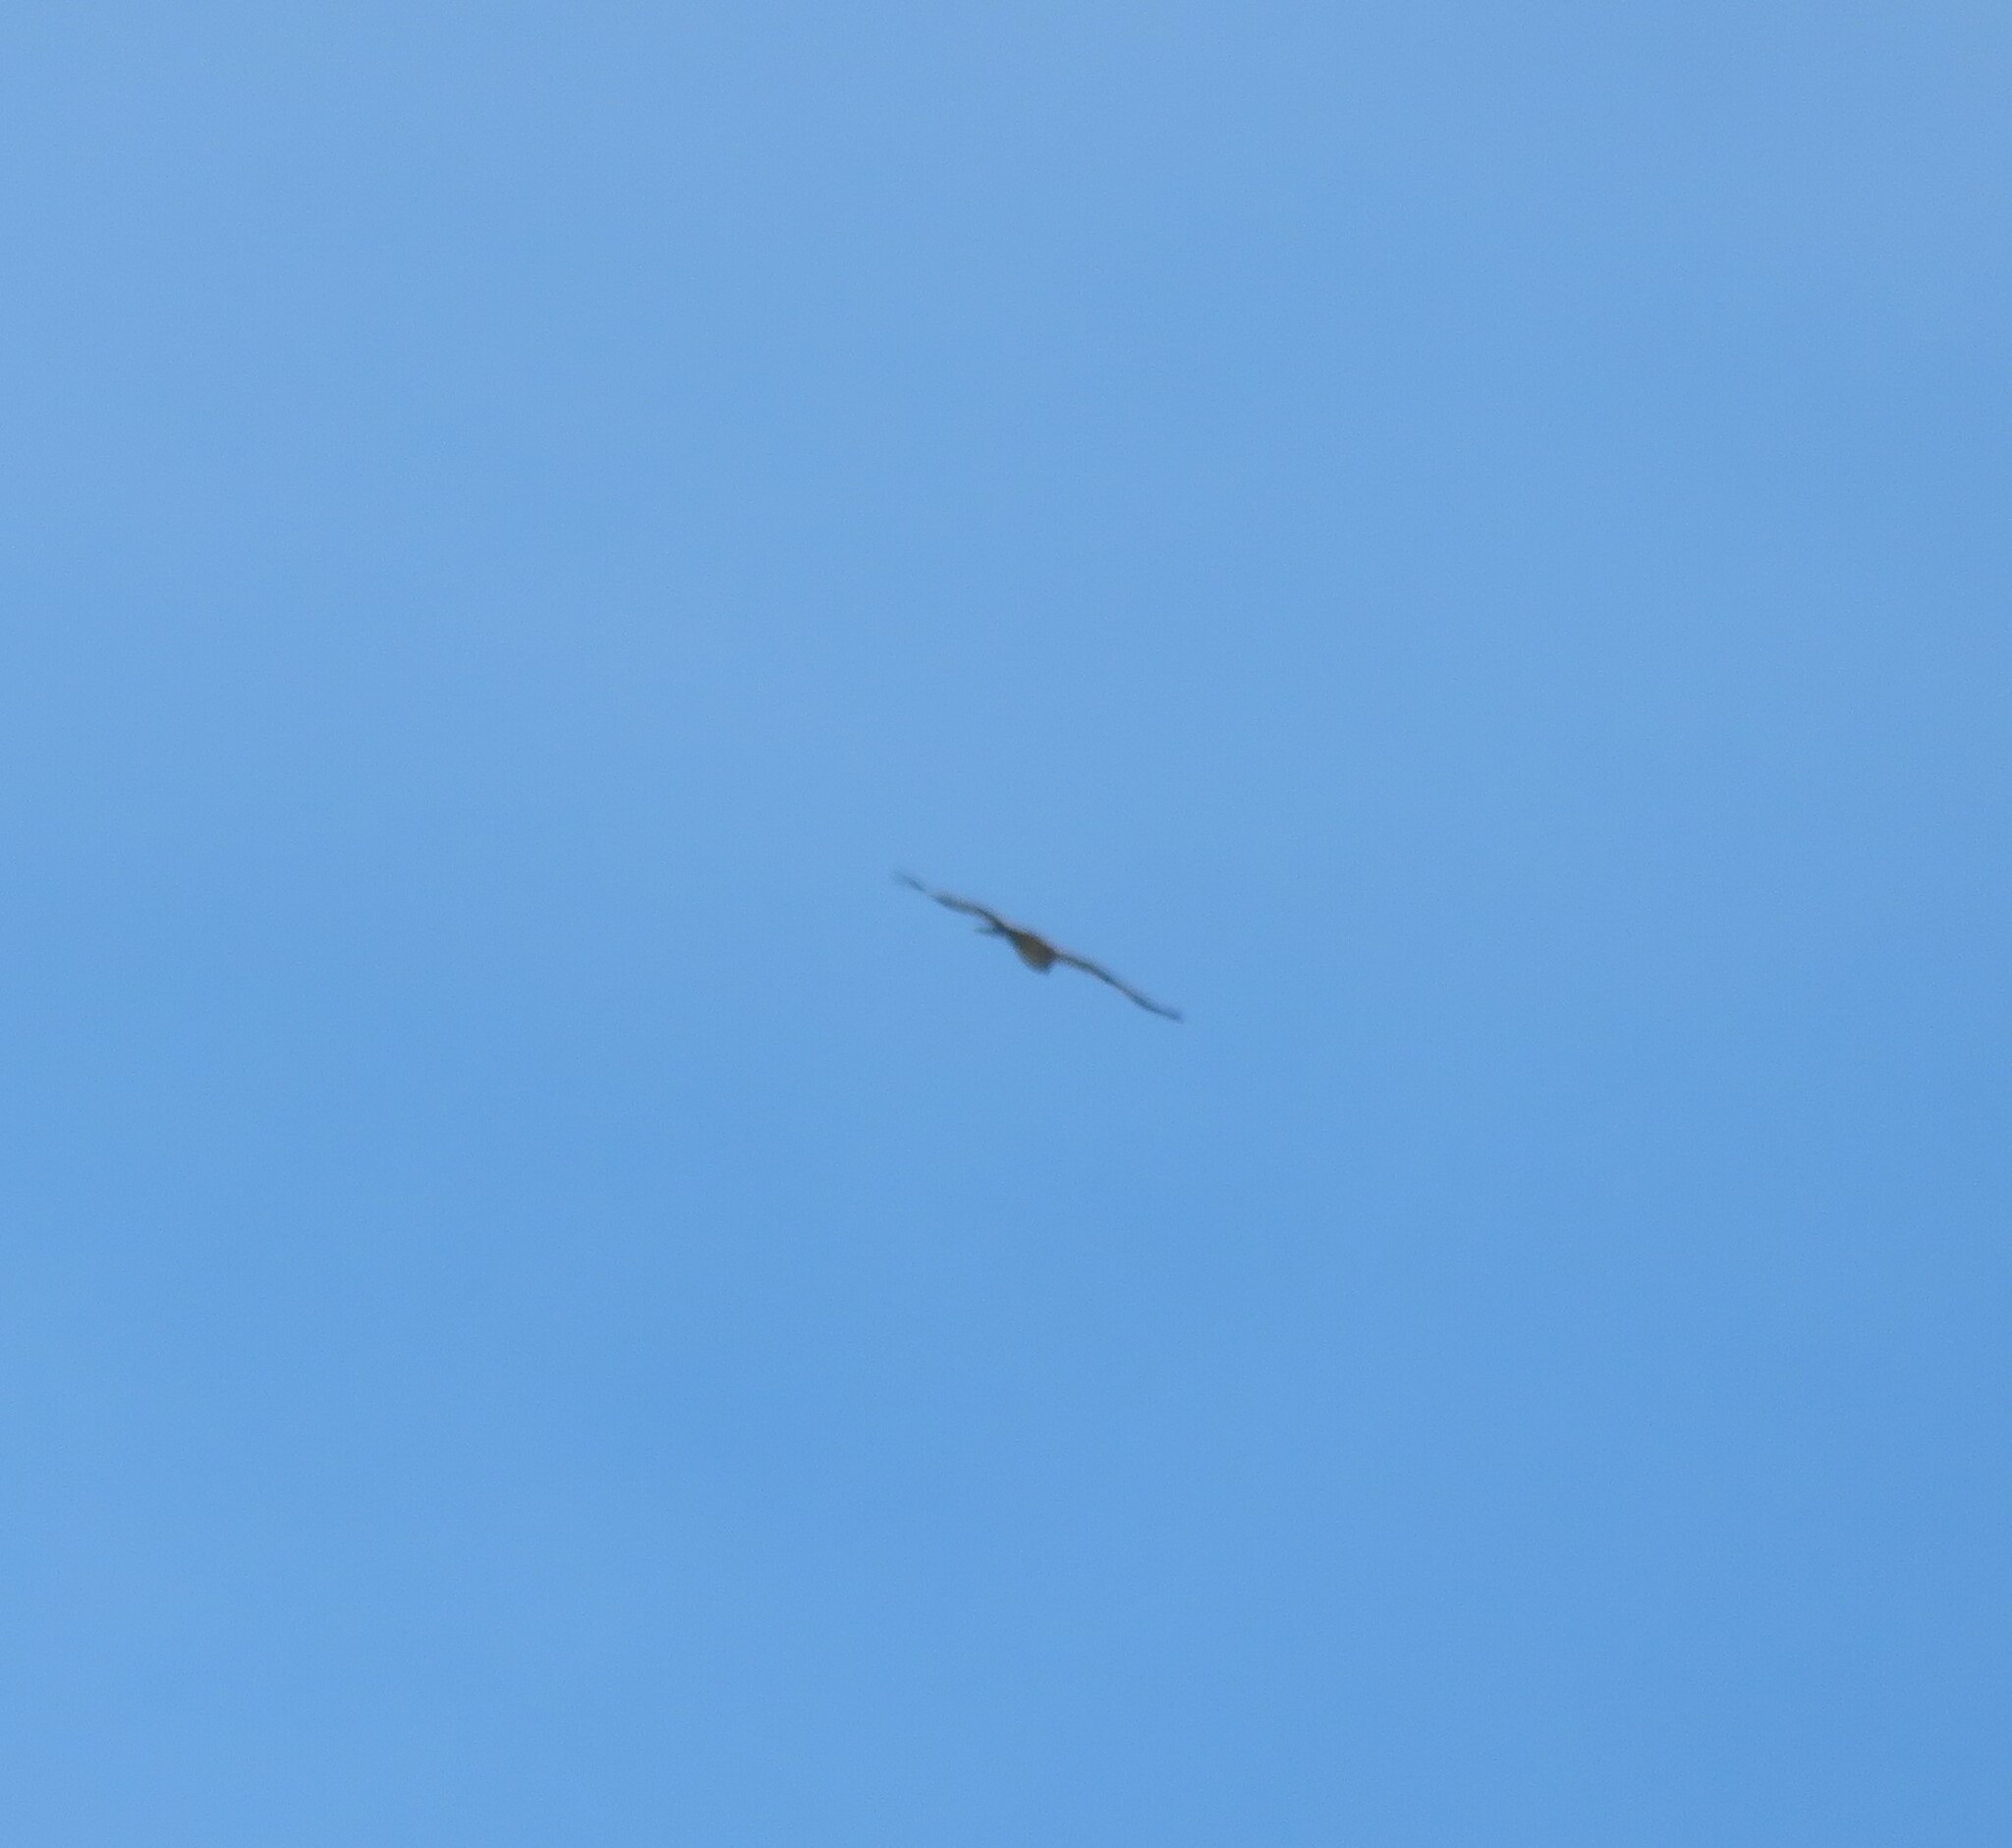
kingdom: Animalia
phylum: Chordata
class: Aves
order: Accipitriformes
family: Accipitridae
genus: Hieraaetus
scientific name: Hieraaetus pennatus
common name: Booted eagle
